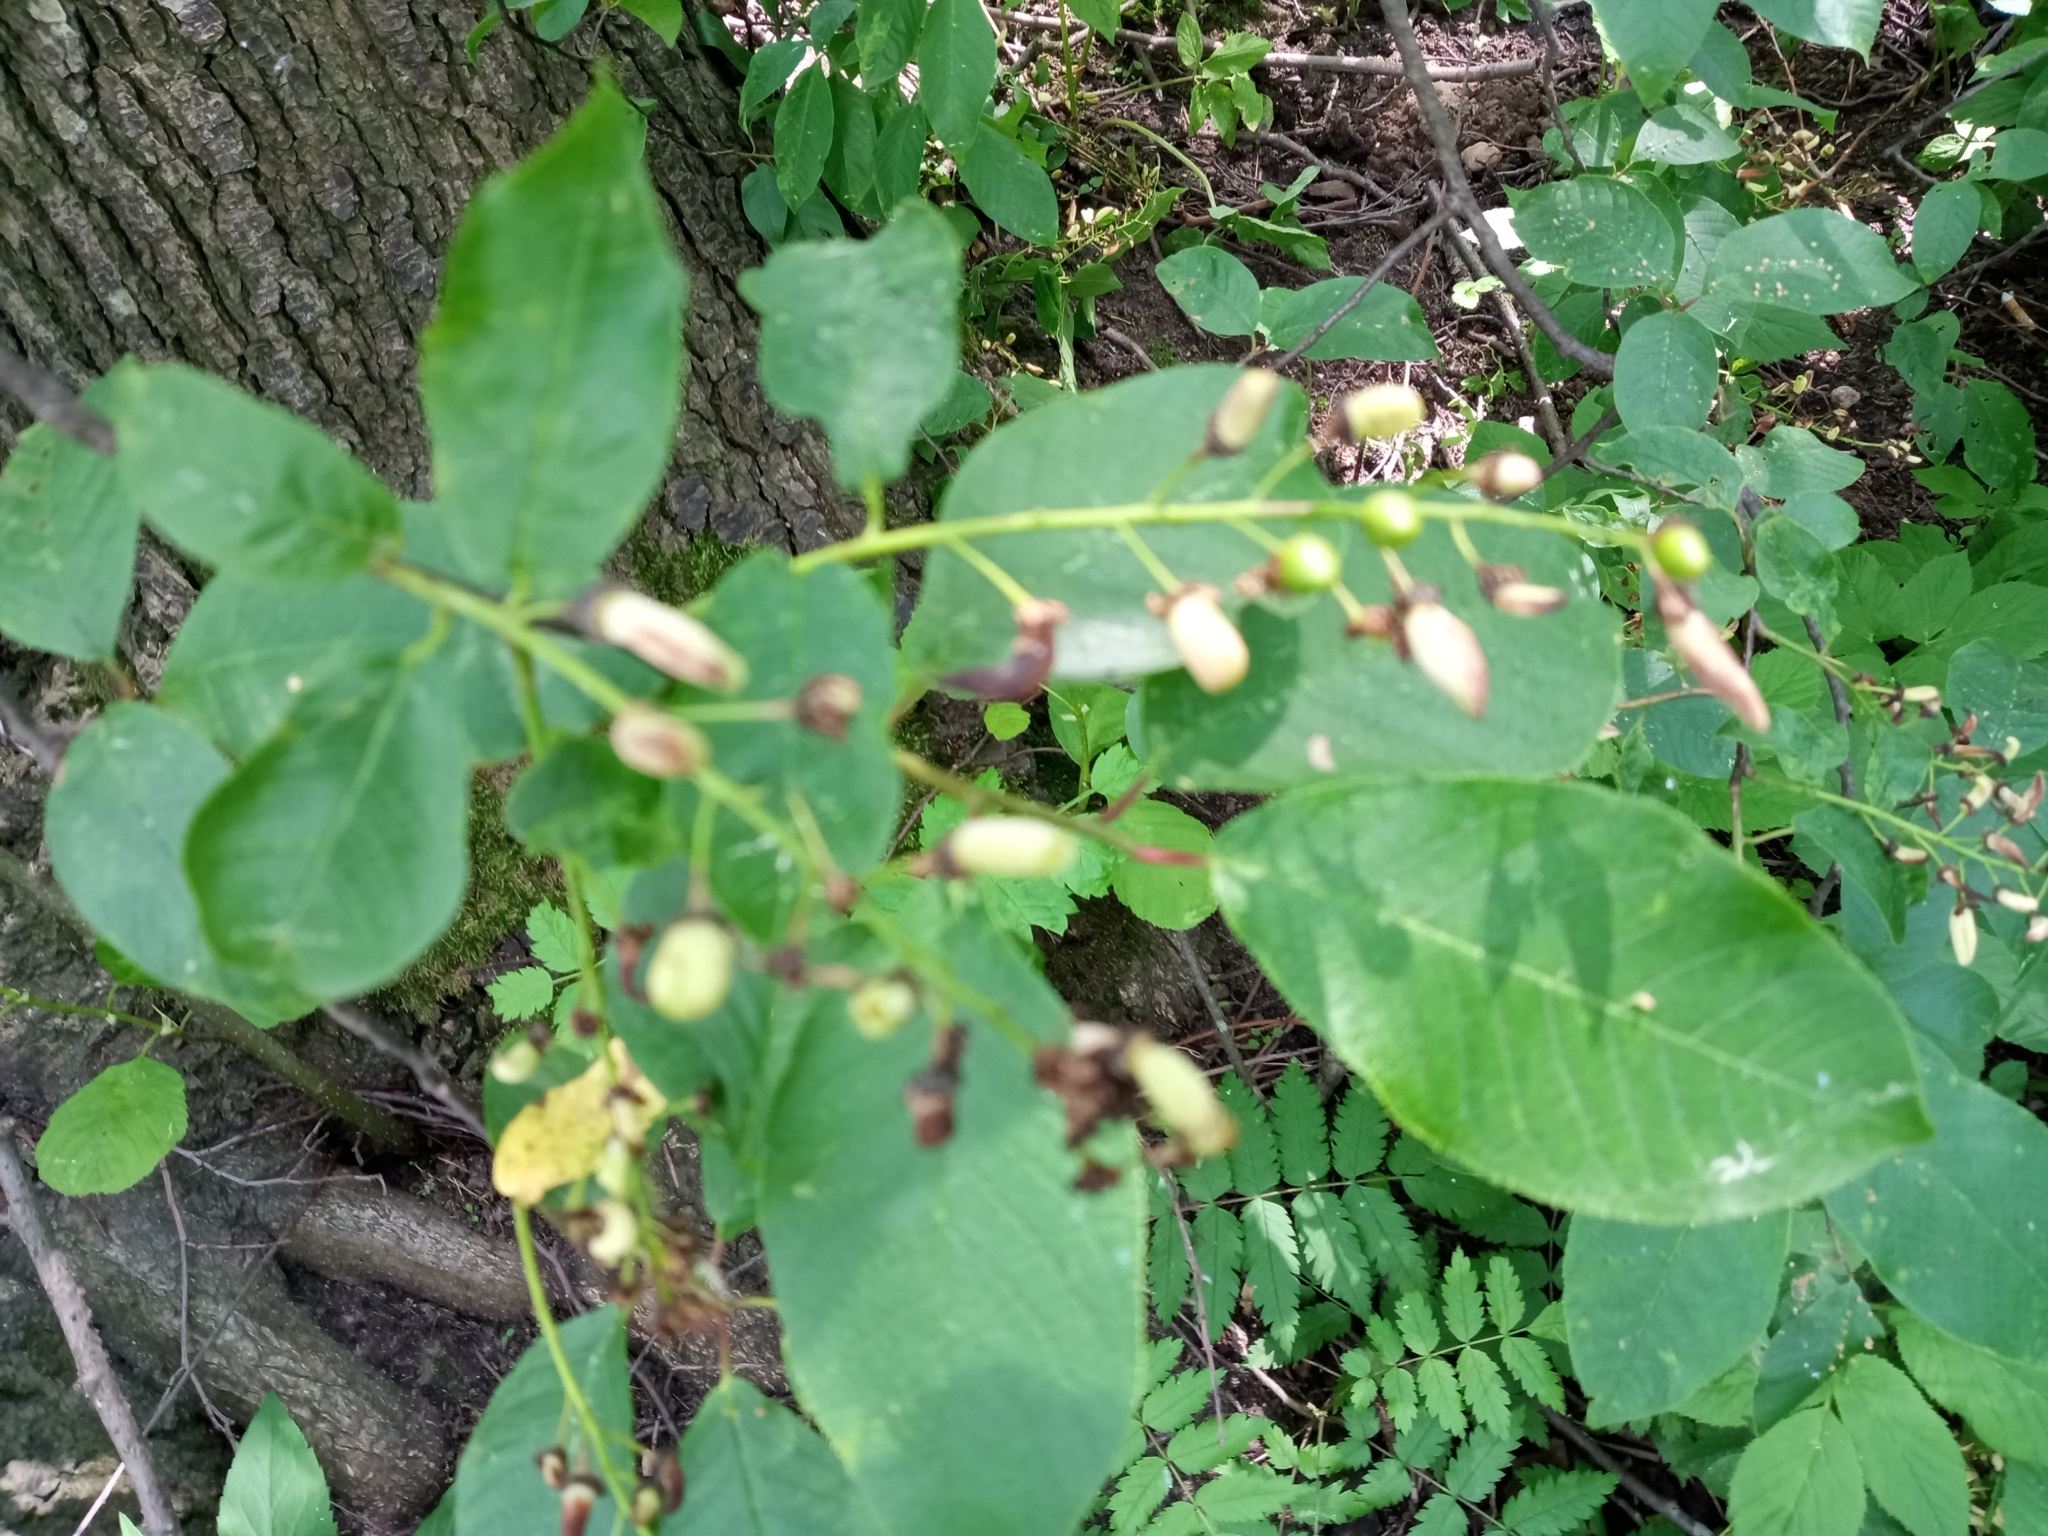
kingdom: Fungi
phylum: Ascomycota
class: Taphrinomycetes
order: Taphrinales
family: Taphrinaceae
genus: Taphrina
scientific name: Taphrina padi
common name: Bird cherry pocket
